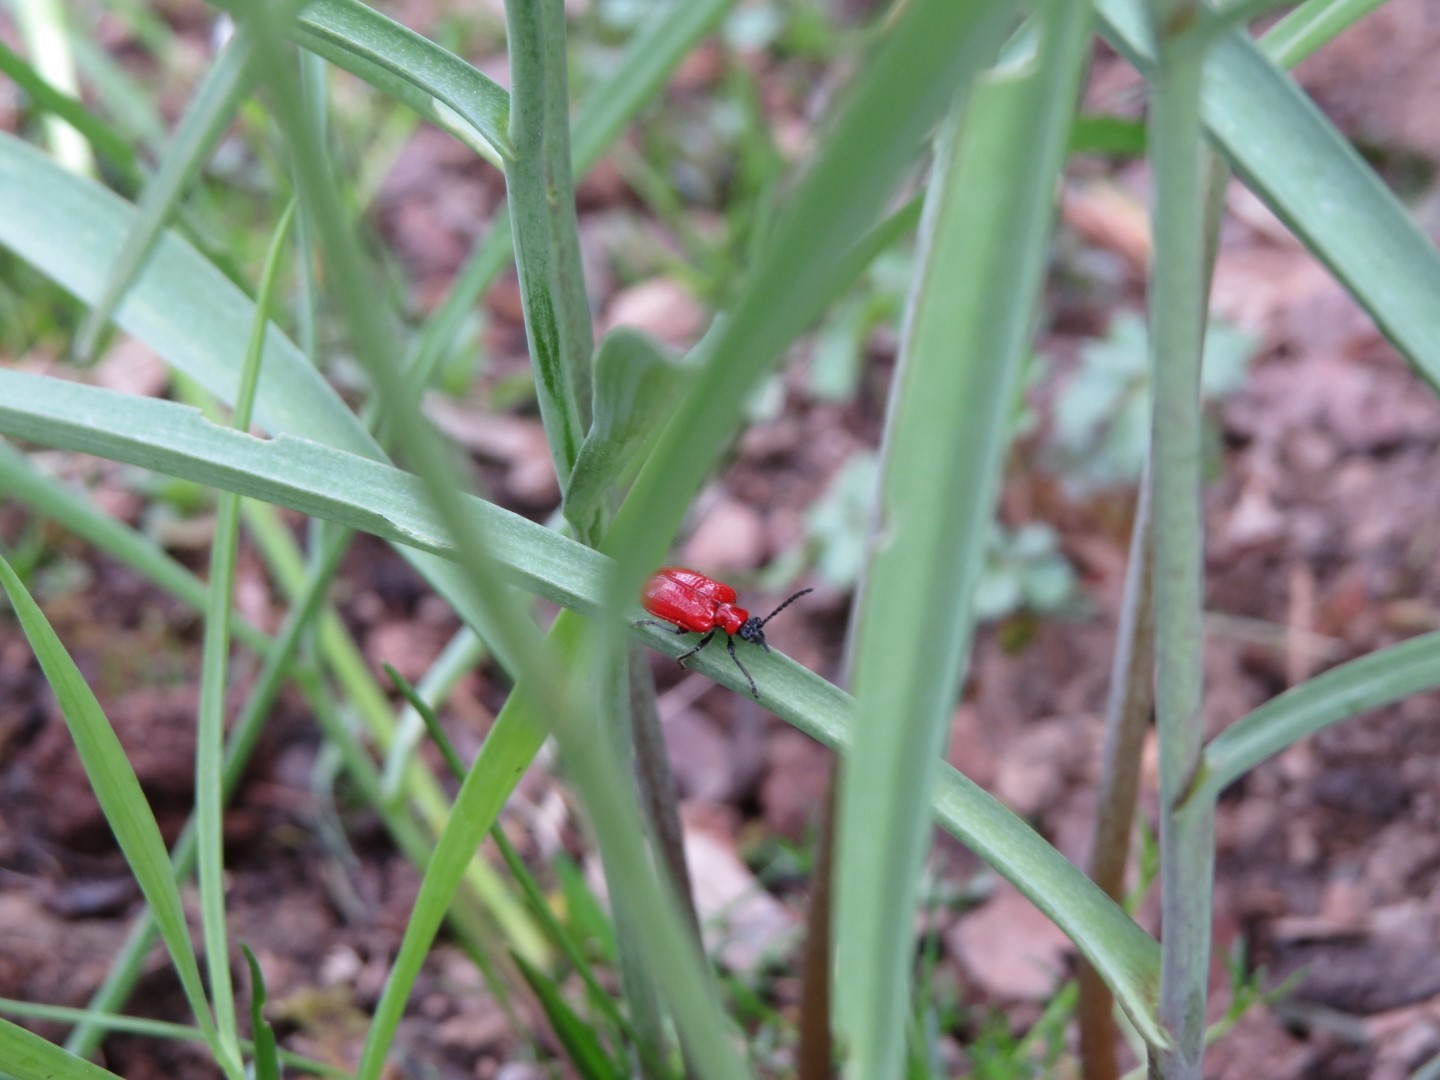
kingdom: Animalia
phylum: Arthropoda
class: Insecta
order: Coleoptera
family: Chrysomelidae
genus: Lilioceris
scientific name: Lilioceris lilii
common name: Lily beetle
